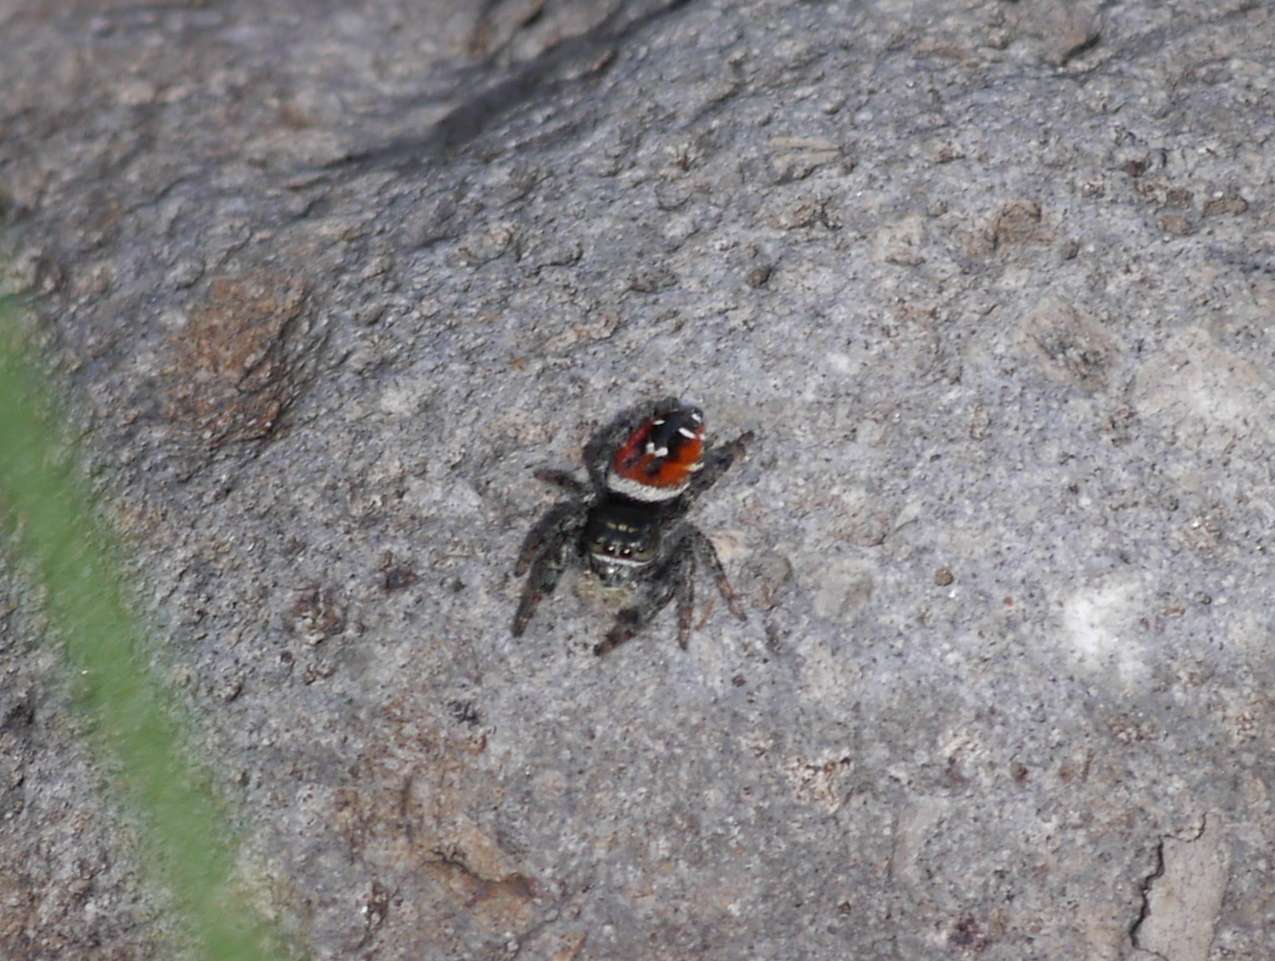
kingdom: Animalia
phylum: Arthropoda
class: Arachnida
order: Araneae
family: Salticidae
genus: Phidippus
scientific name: Phidippus carneus
